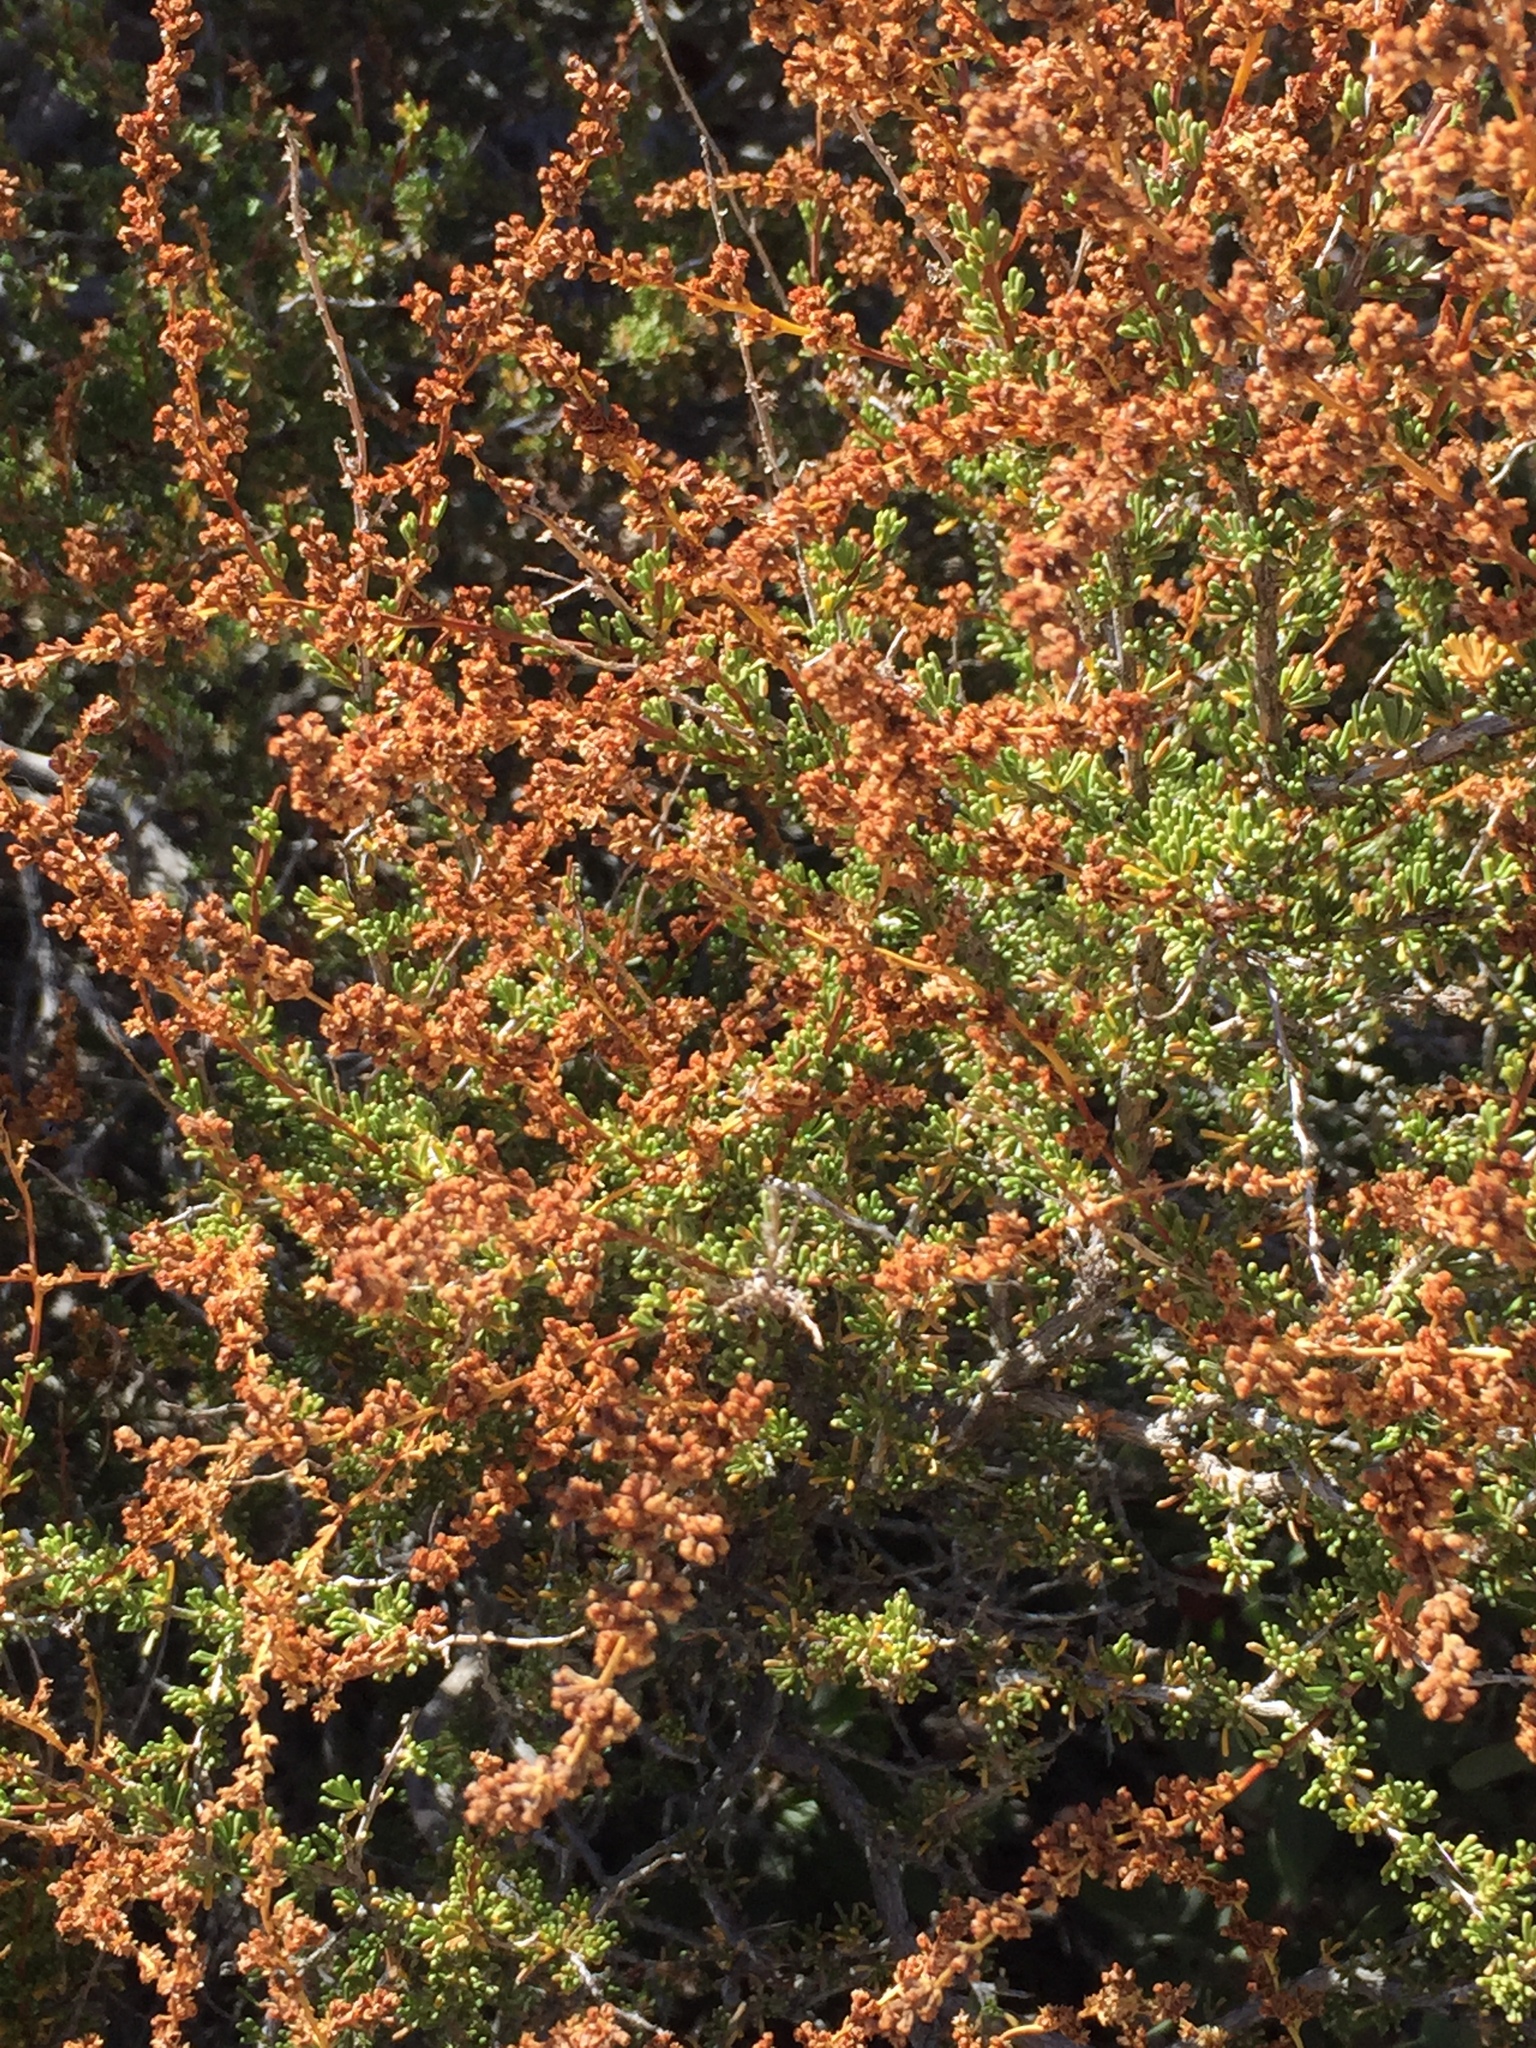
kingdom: Plantae
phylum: Tracheophyta
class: Magnoliopsida
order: Rosales
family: Rosaceae
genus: Adenostoma
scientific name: Adenostoma fasciculatum
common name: Chamise
